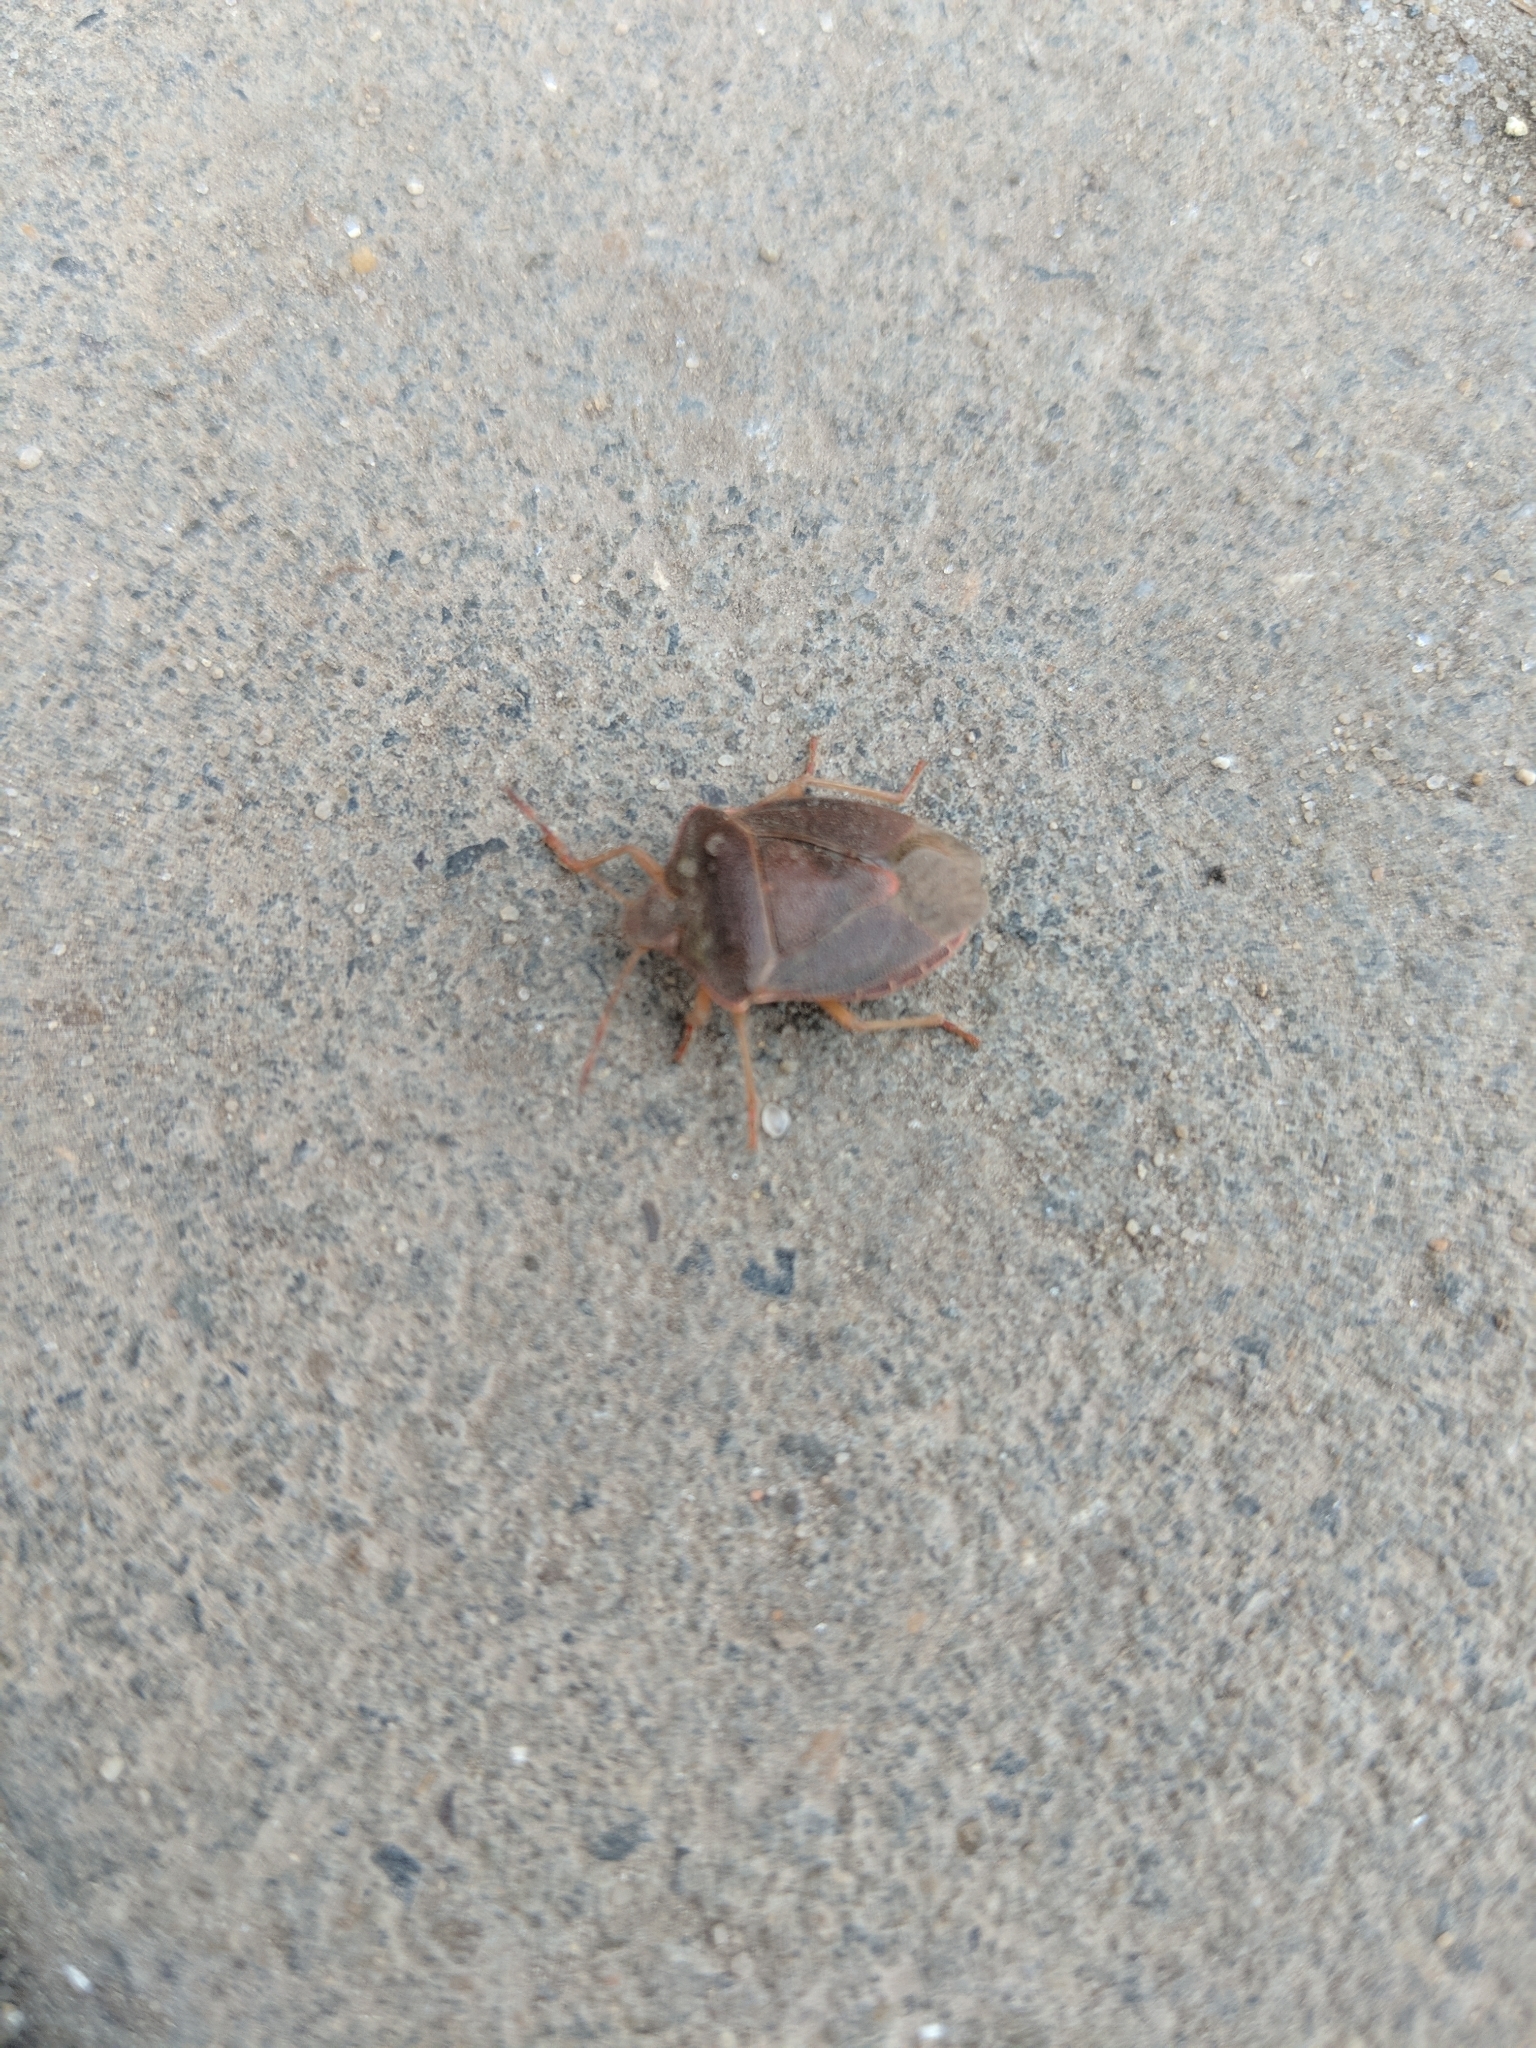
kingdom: Animalia
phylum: Arthropoda
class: Insecta
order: Hemiptera
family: Pentatomidae
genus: Palomena
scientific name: Palomena prasina
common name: Green shieldbug
